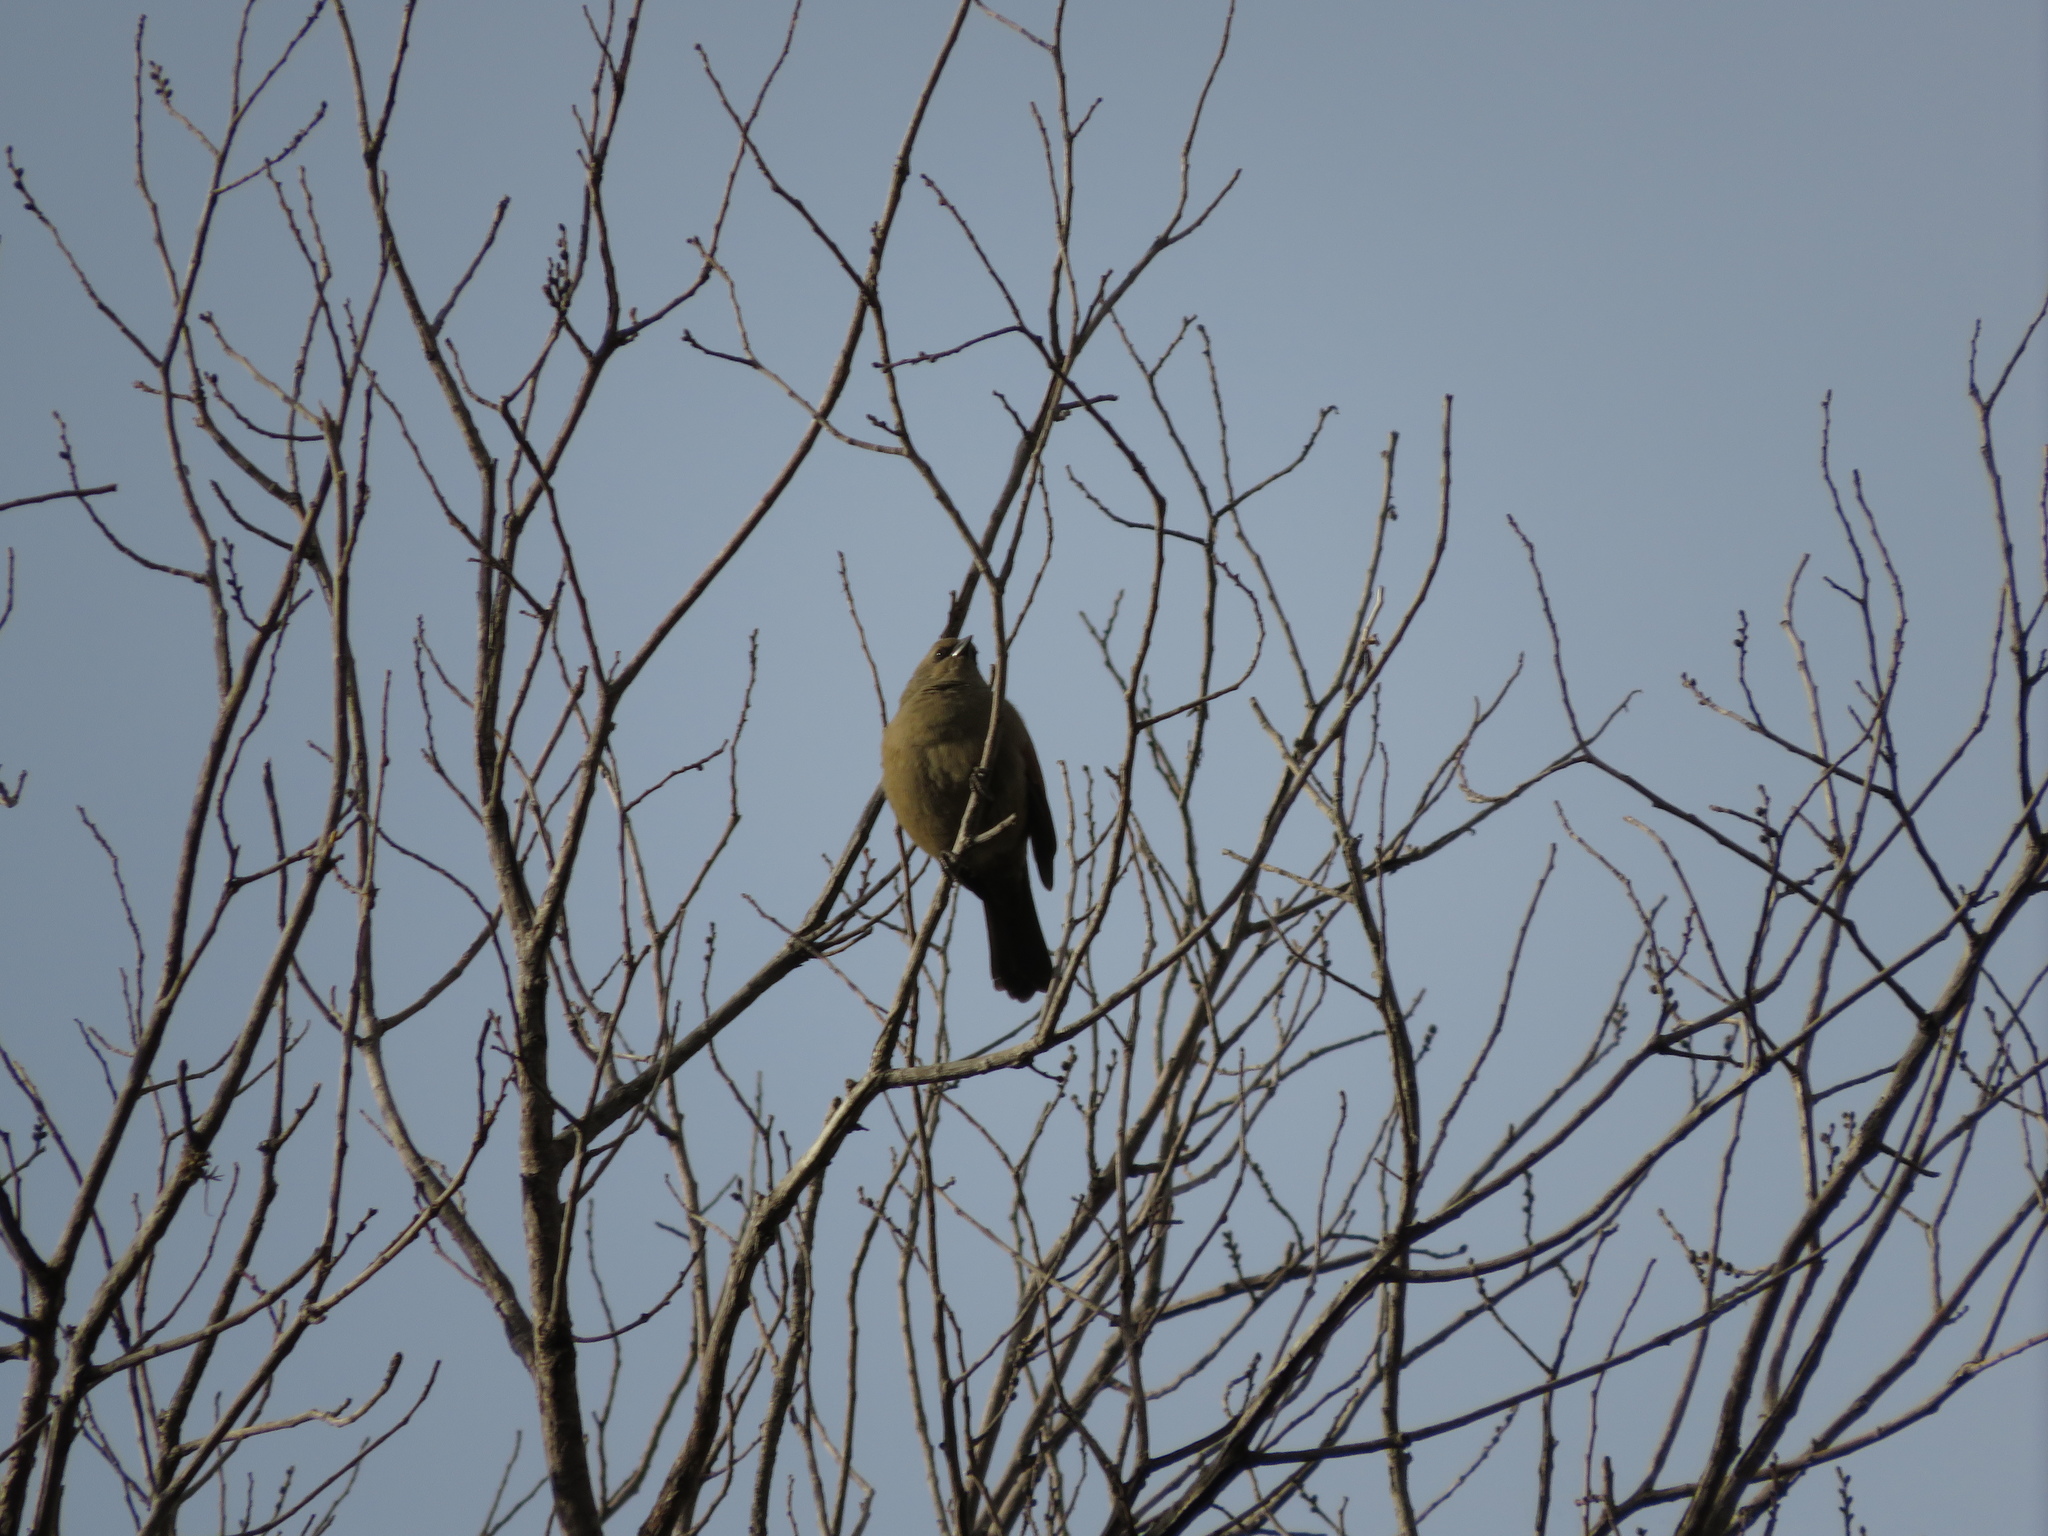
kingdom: Animalia
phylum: Chordata
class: Aves
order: Passeriformes
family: Icteridae
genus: Agelaioides
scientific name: Agelaioides badius
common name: Baywing
